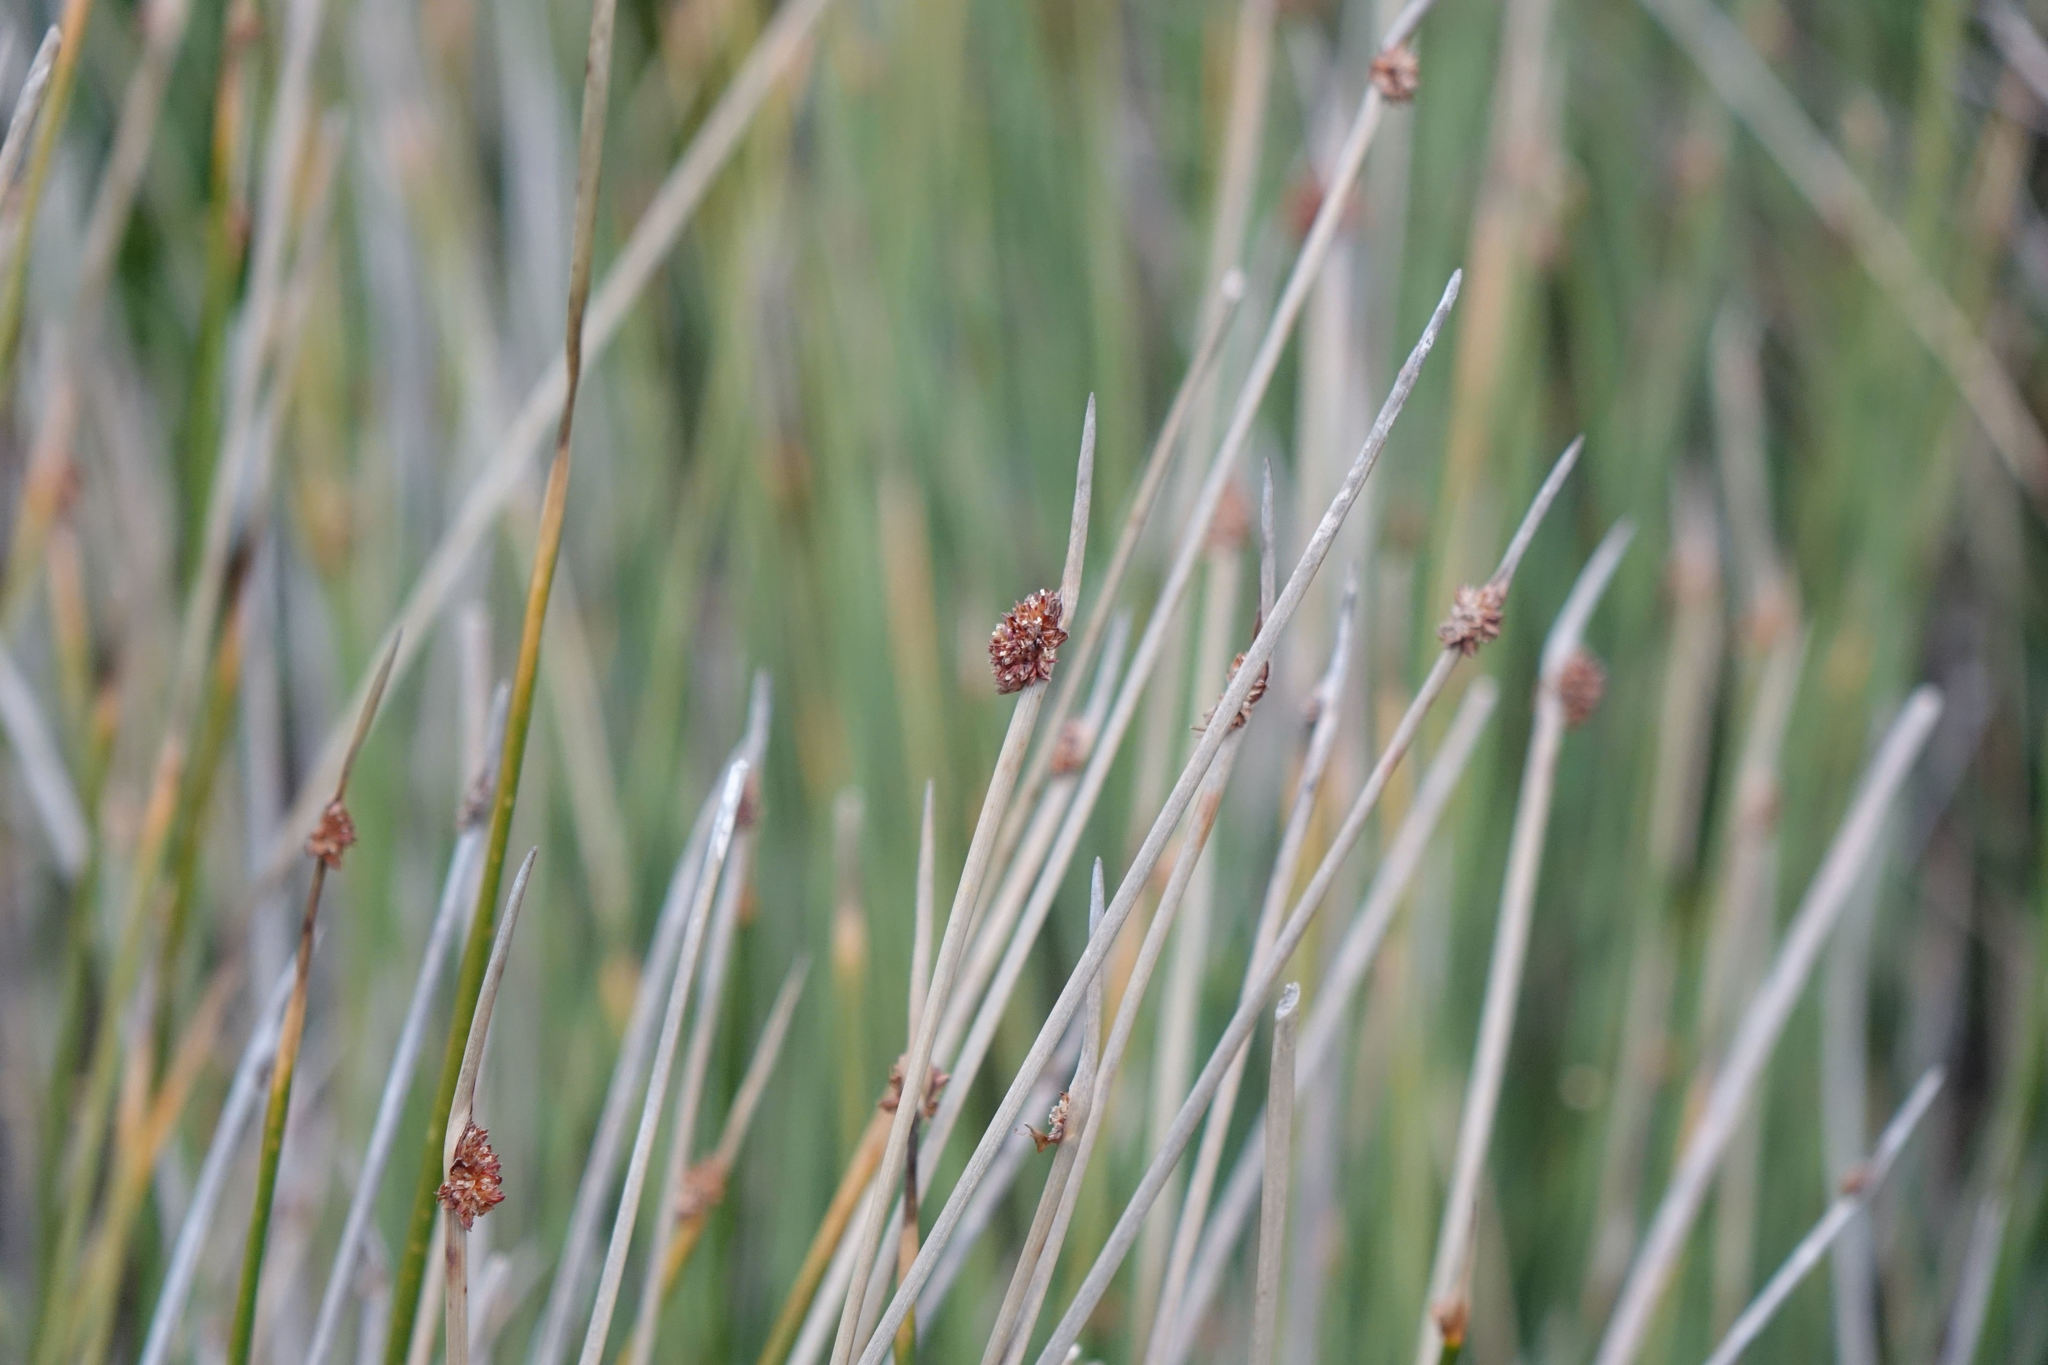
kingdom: Plantae
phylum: Tracheophyta
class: Liliopsida
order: Poales
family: Cyperaceae
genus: Ficinia
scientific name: Ficinia nodosa
